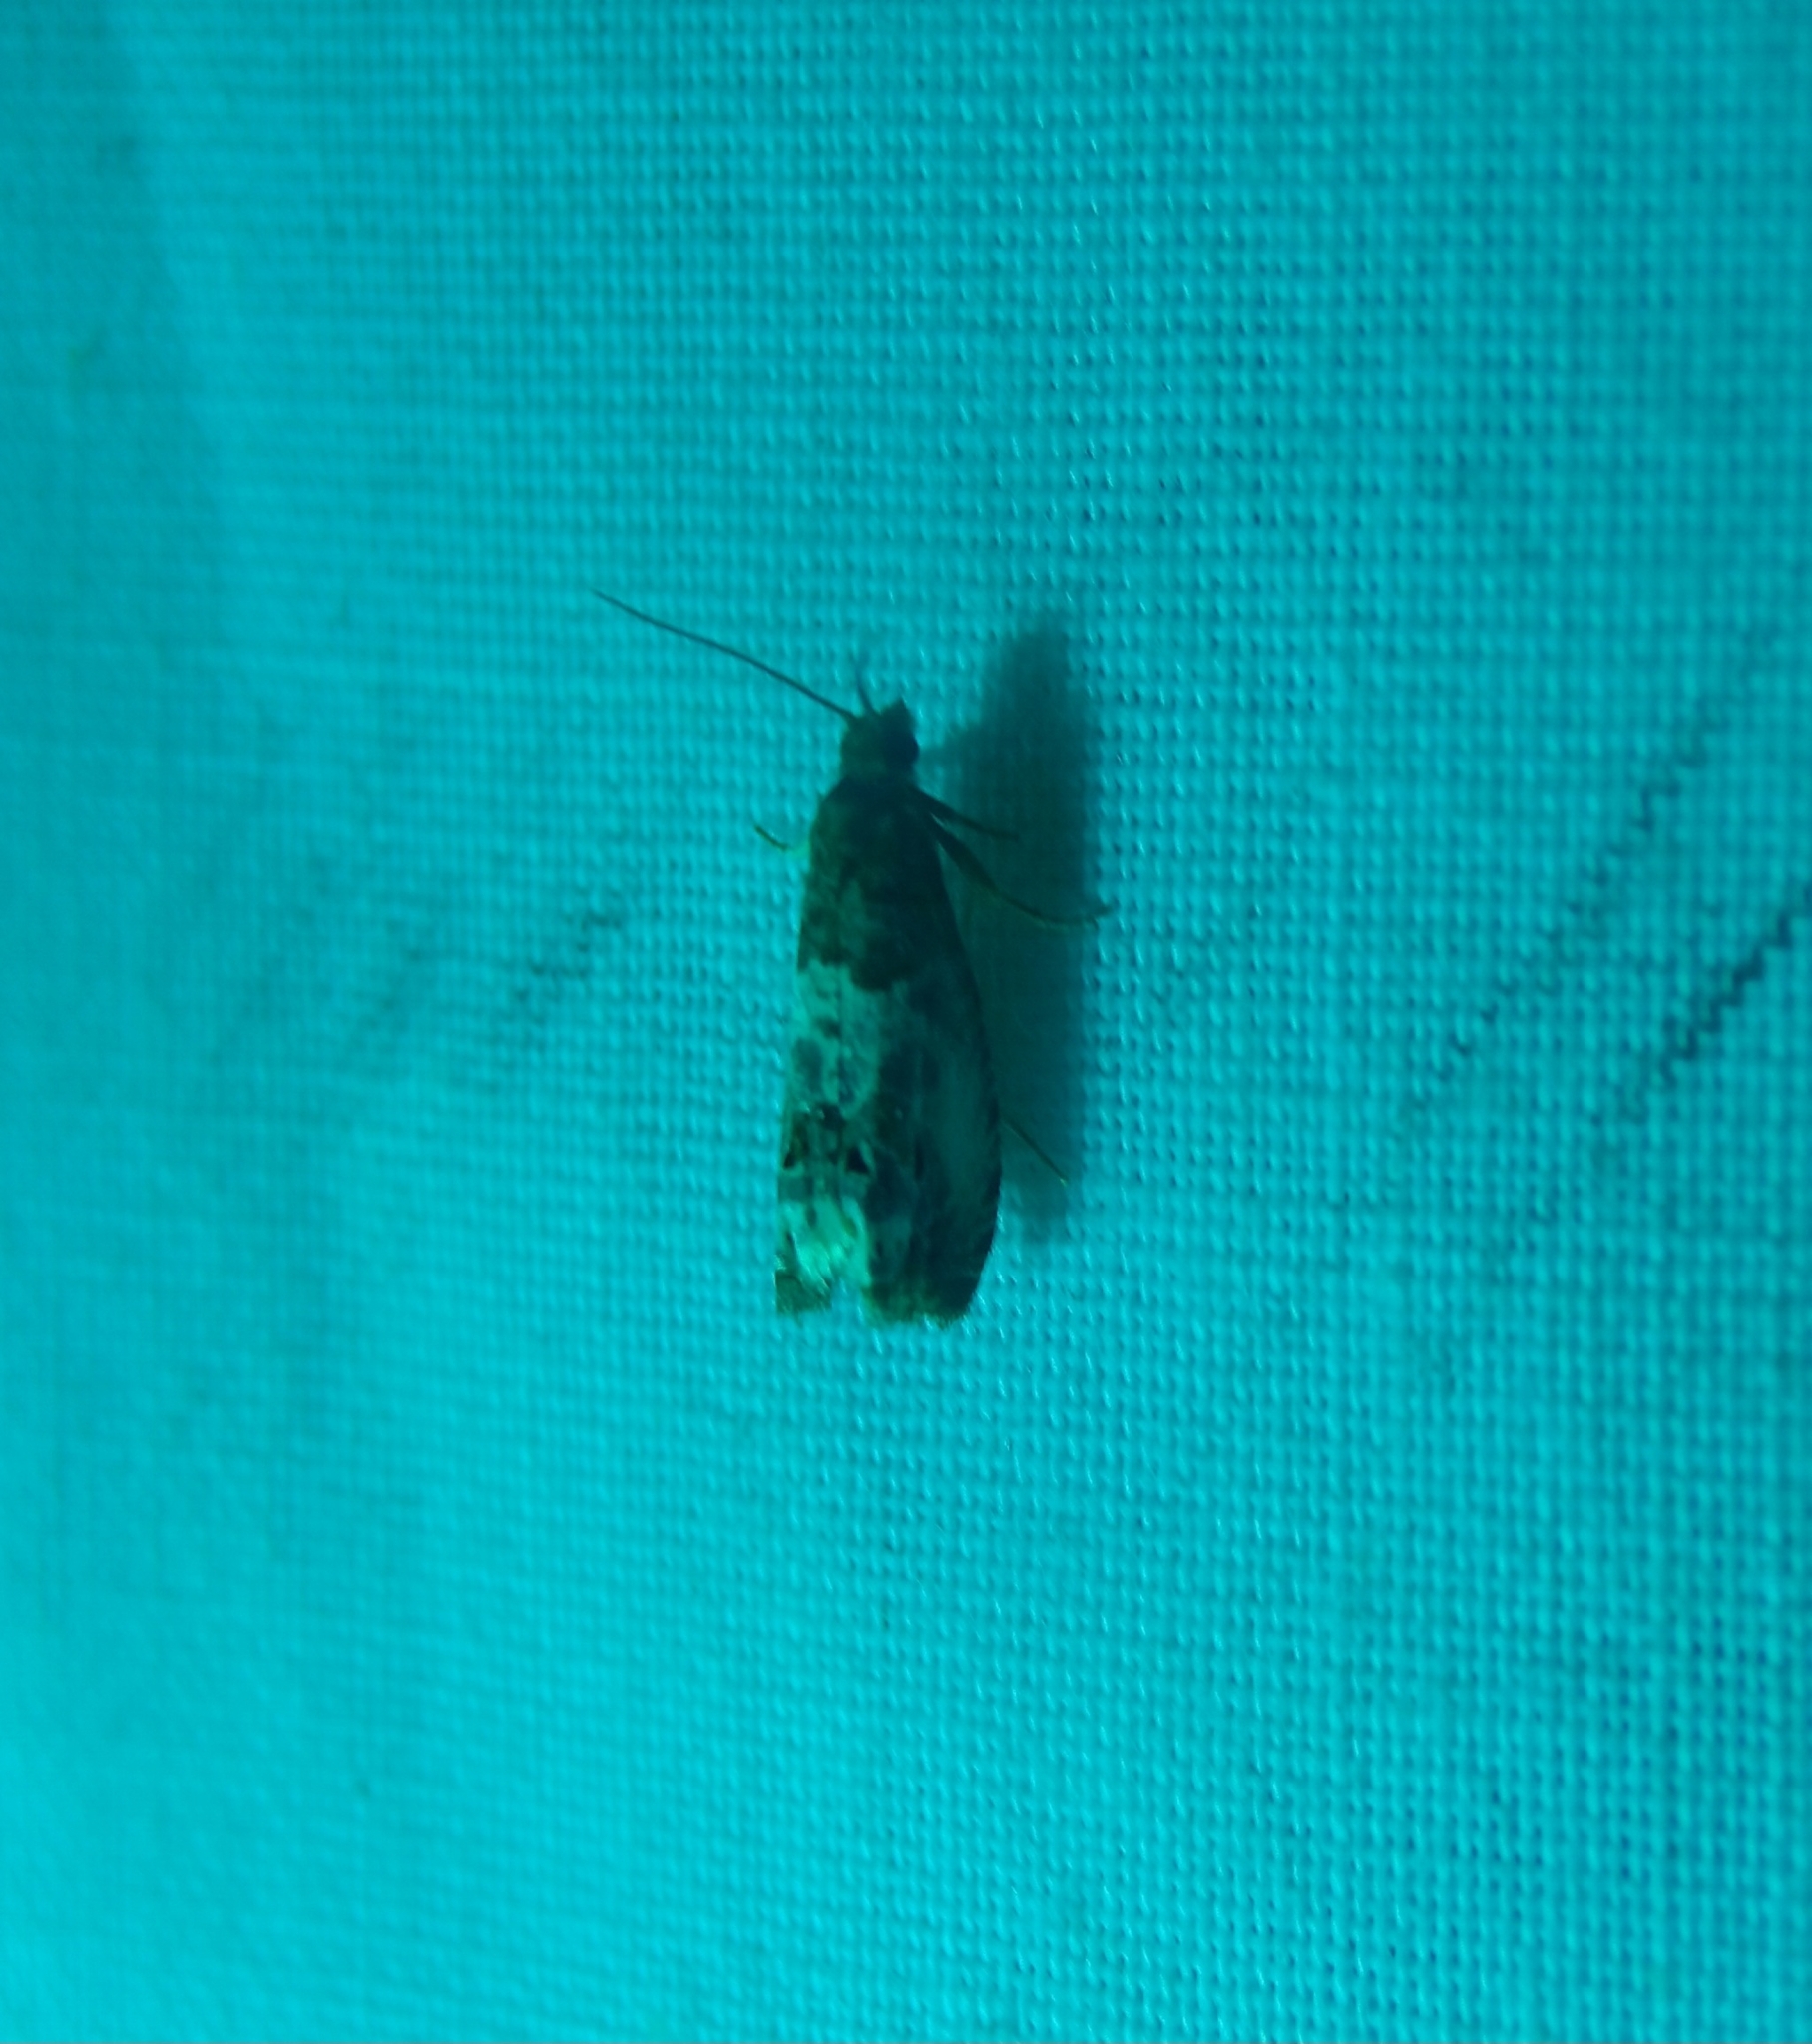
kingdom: Animalia
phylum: Arthropoda
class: Insecta
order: Lepidoptera
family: Tortricidae
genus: Notocelia
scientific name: Notocelia rosaecolana
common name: Common rose bell
